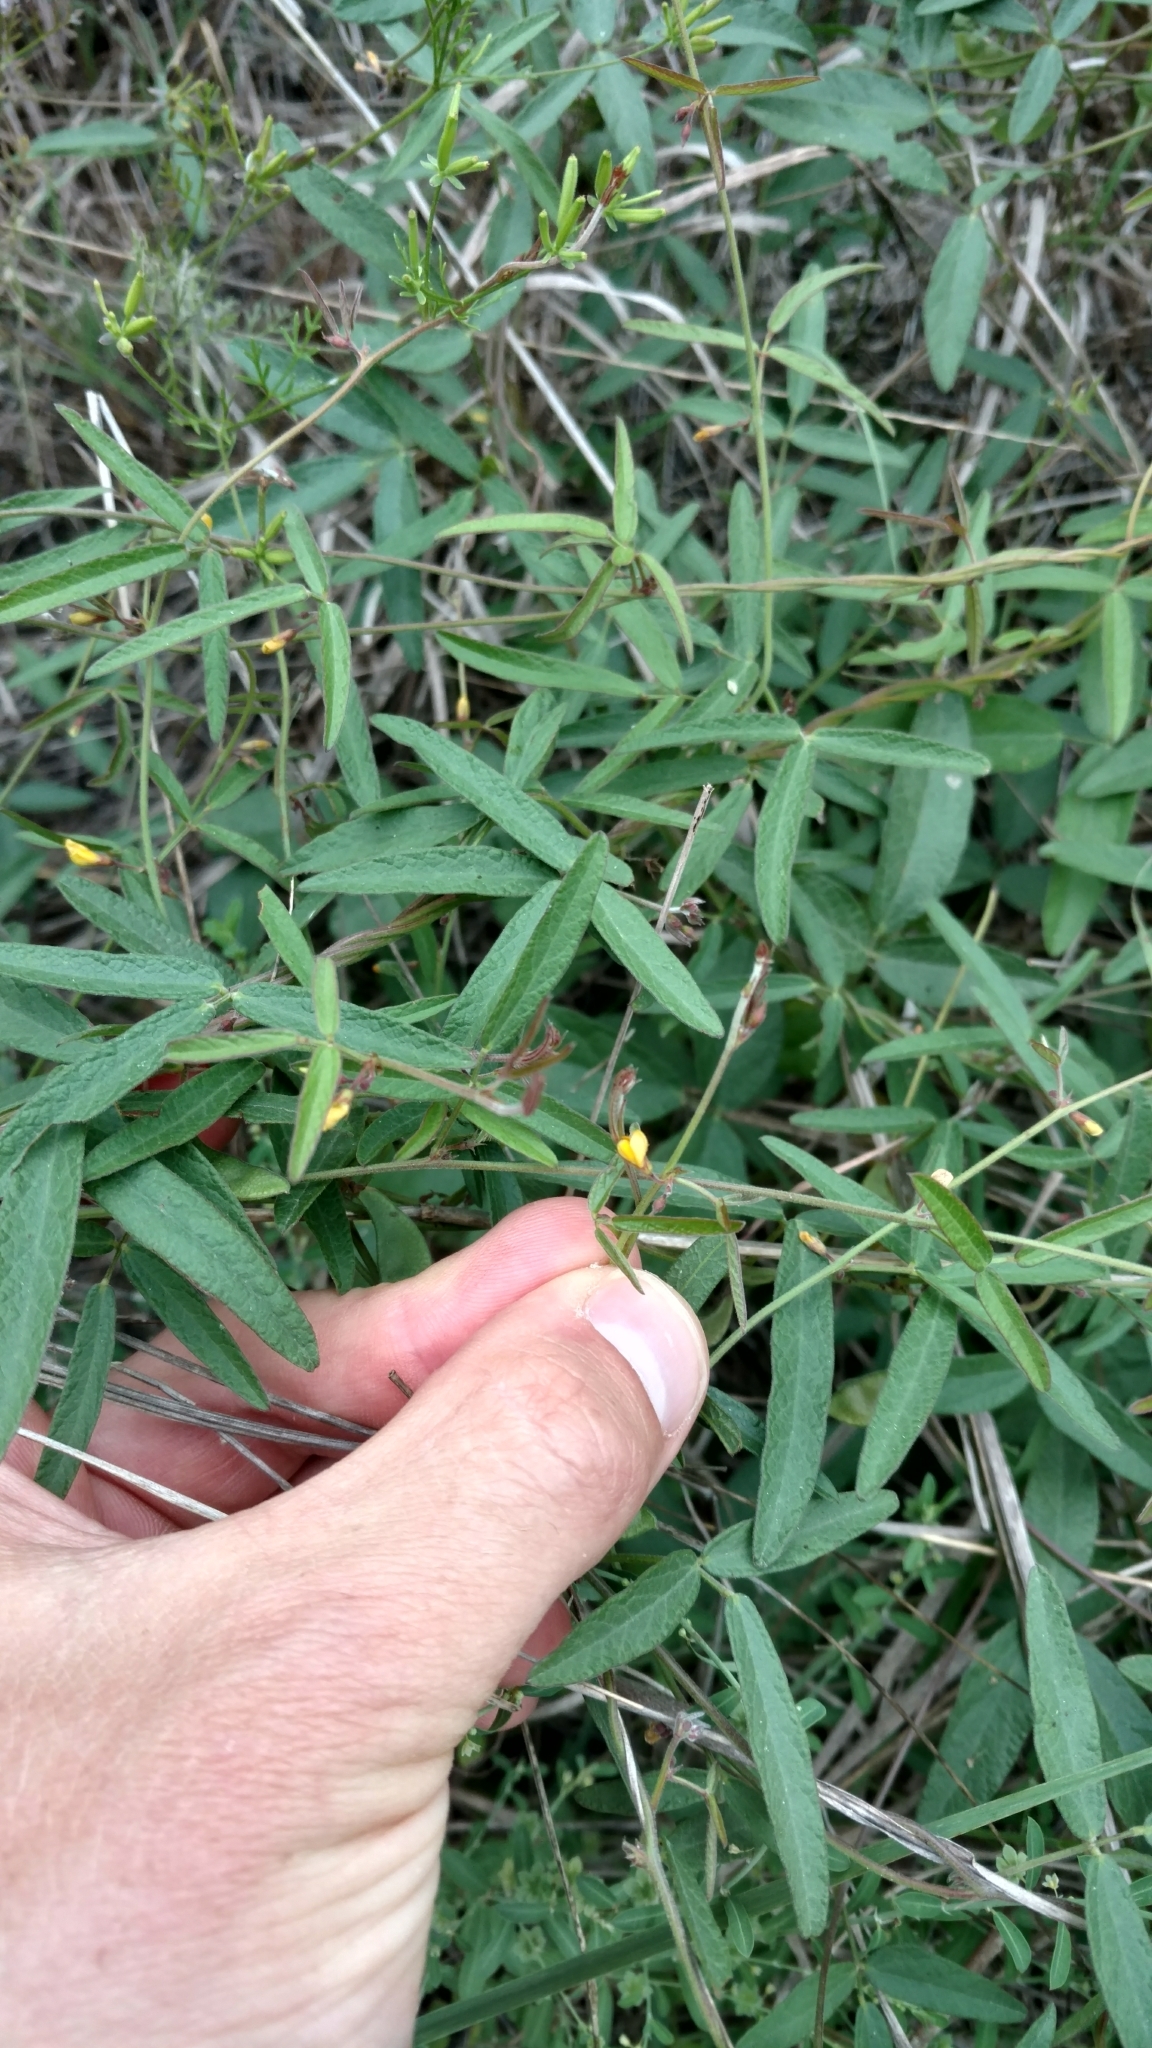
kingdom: Plantae
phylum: Tracheophyta
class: Magnoliopsida
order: Fabales
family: Fabaceae
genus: Rhynchosia
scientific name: Rhynchosia senna
